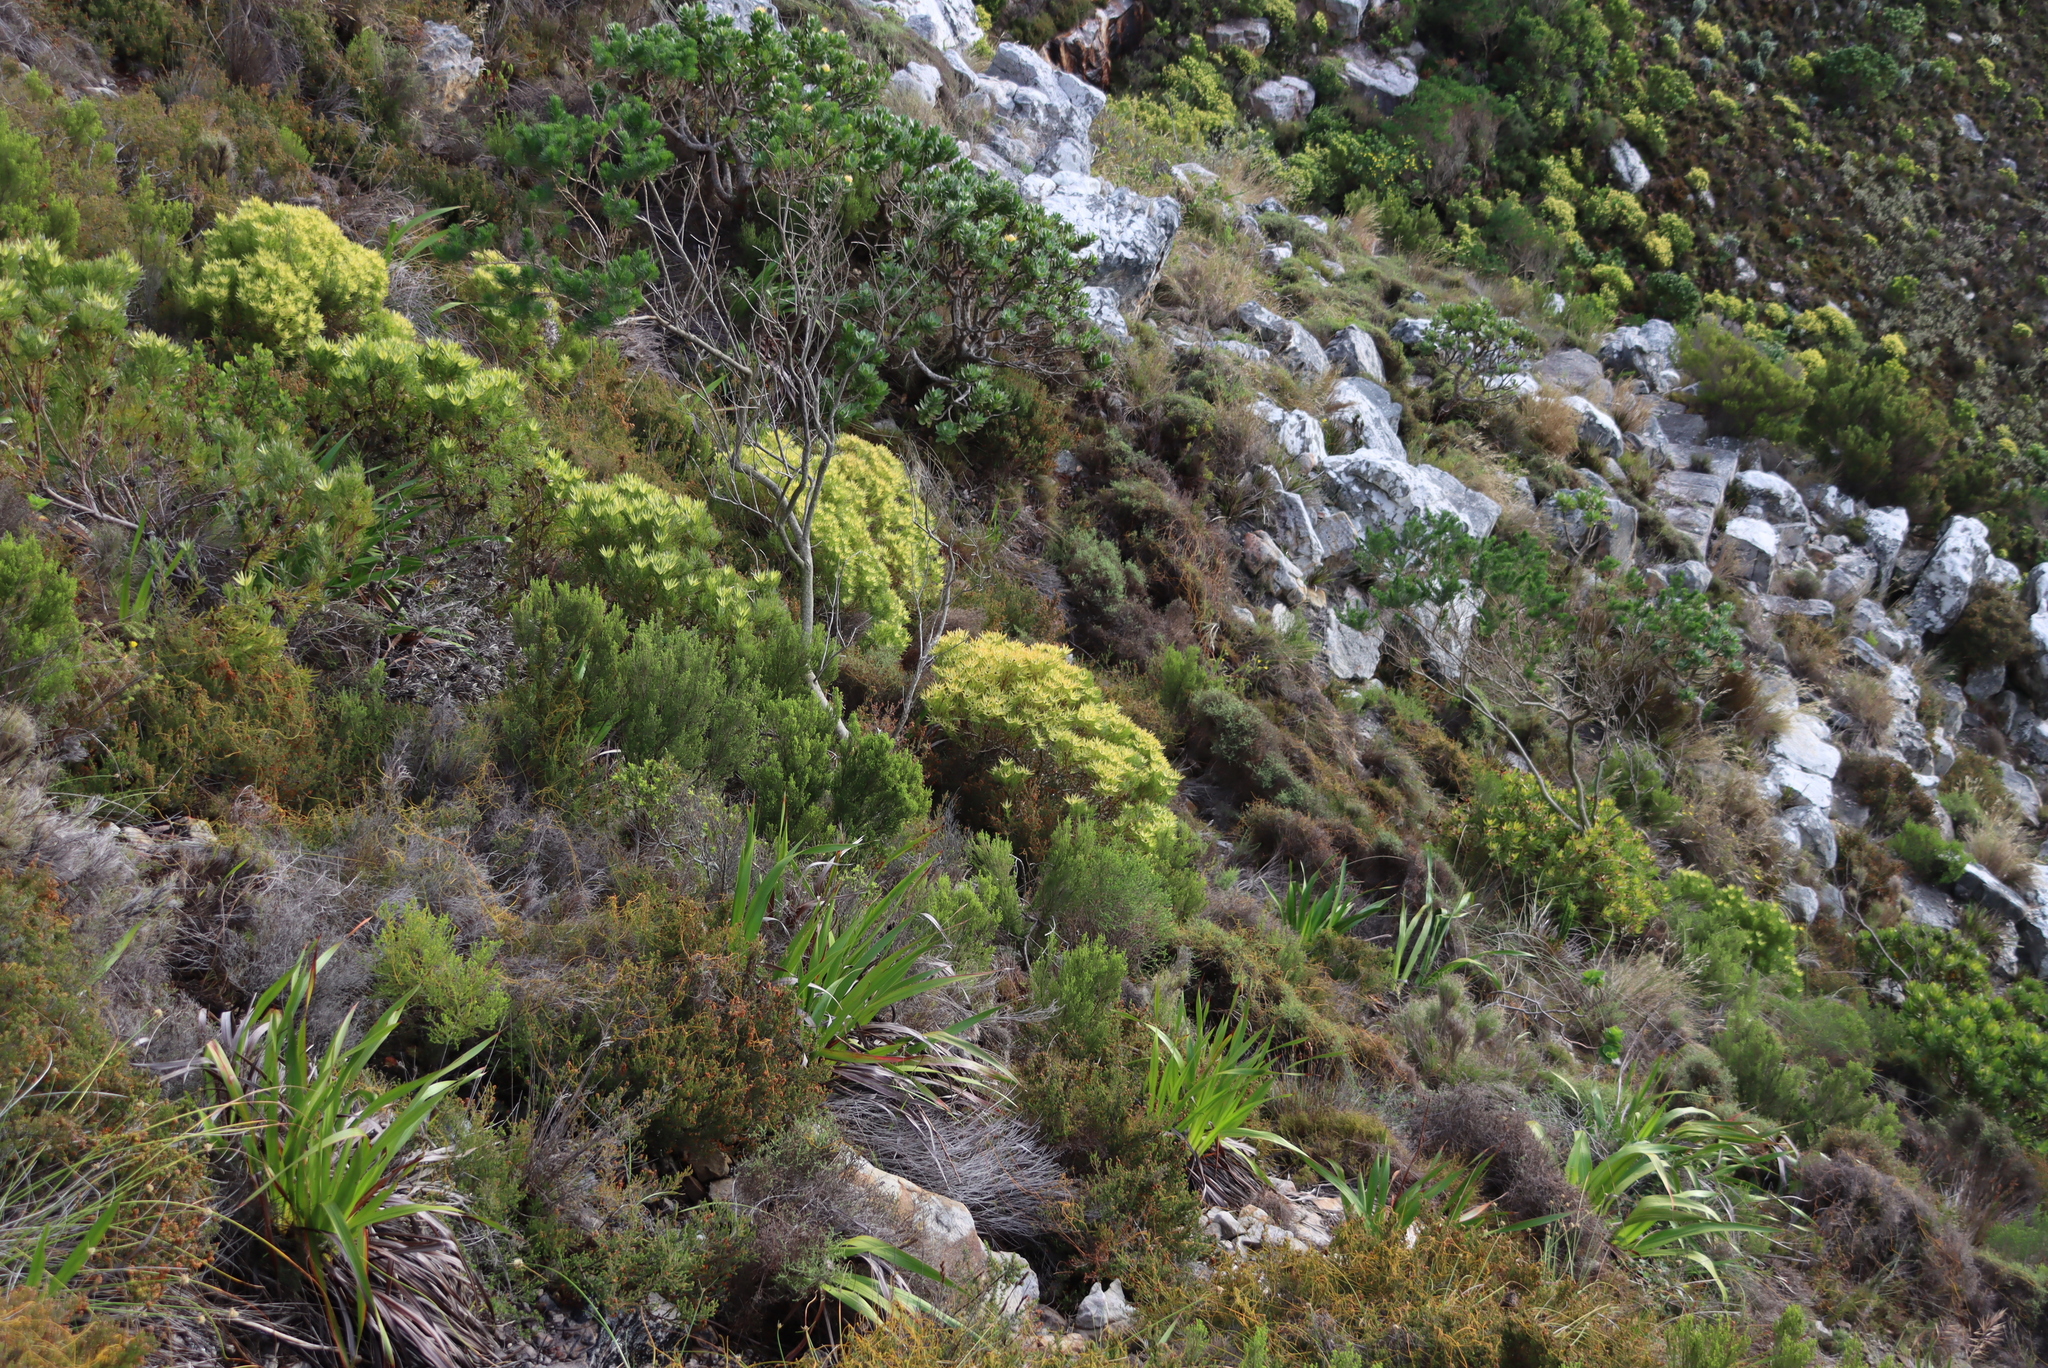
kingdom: Plantae
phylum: Tracheophyta
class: Magnoliopsida
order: Proteales
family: Proteaceae
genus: Leucadendron
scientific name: Leucadendron xanthoconus
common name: Sickle-leaf conebush
